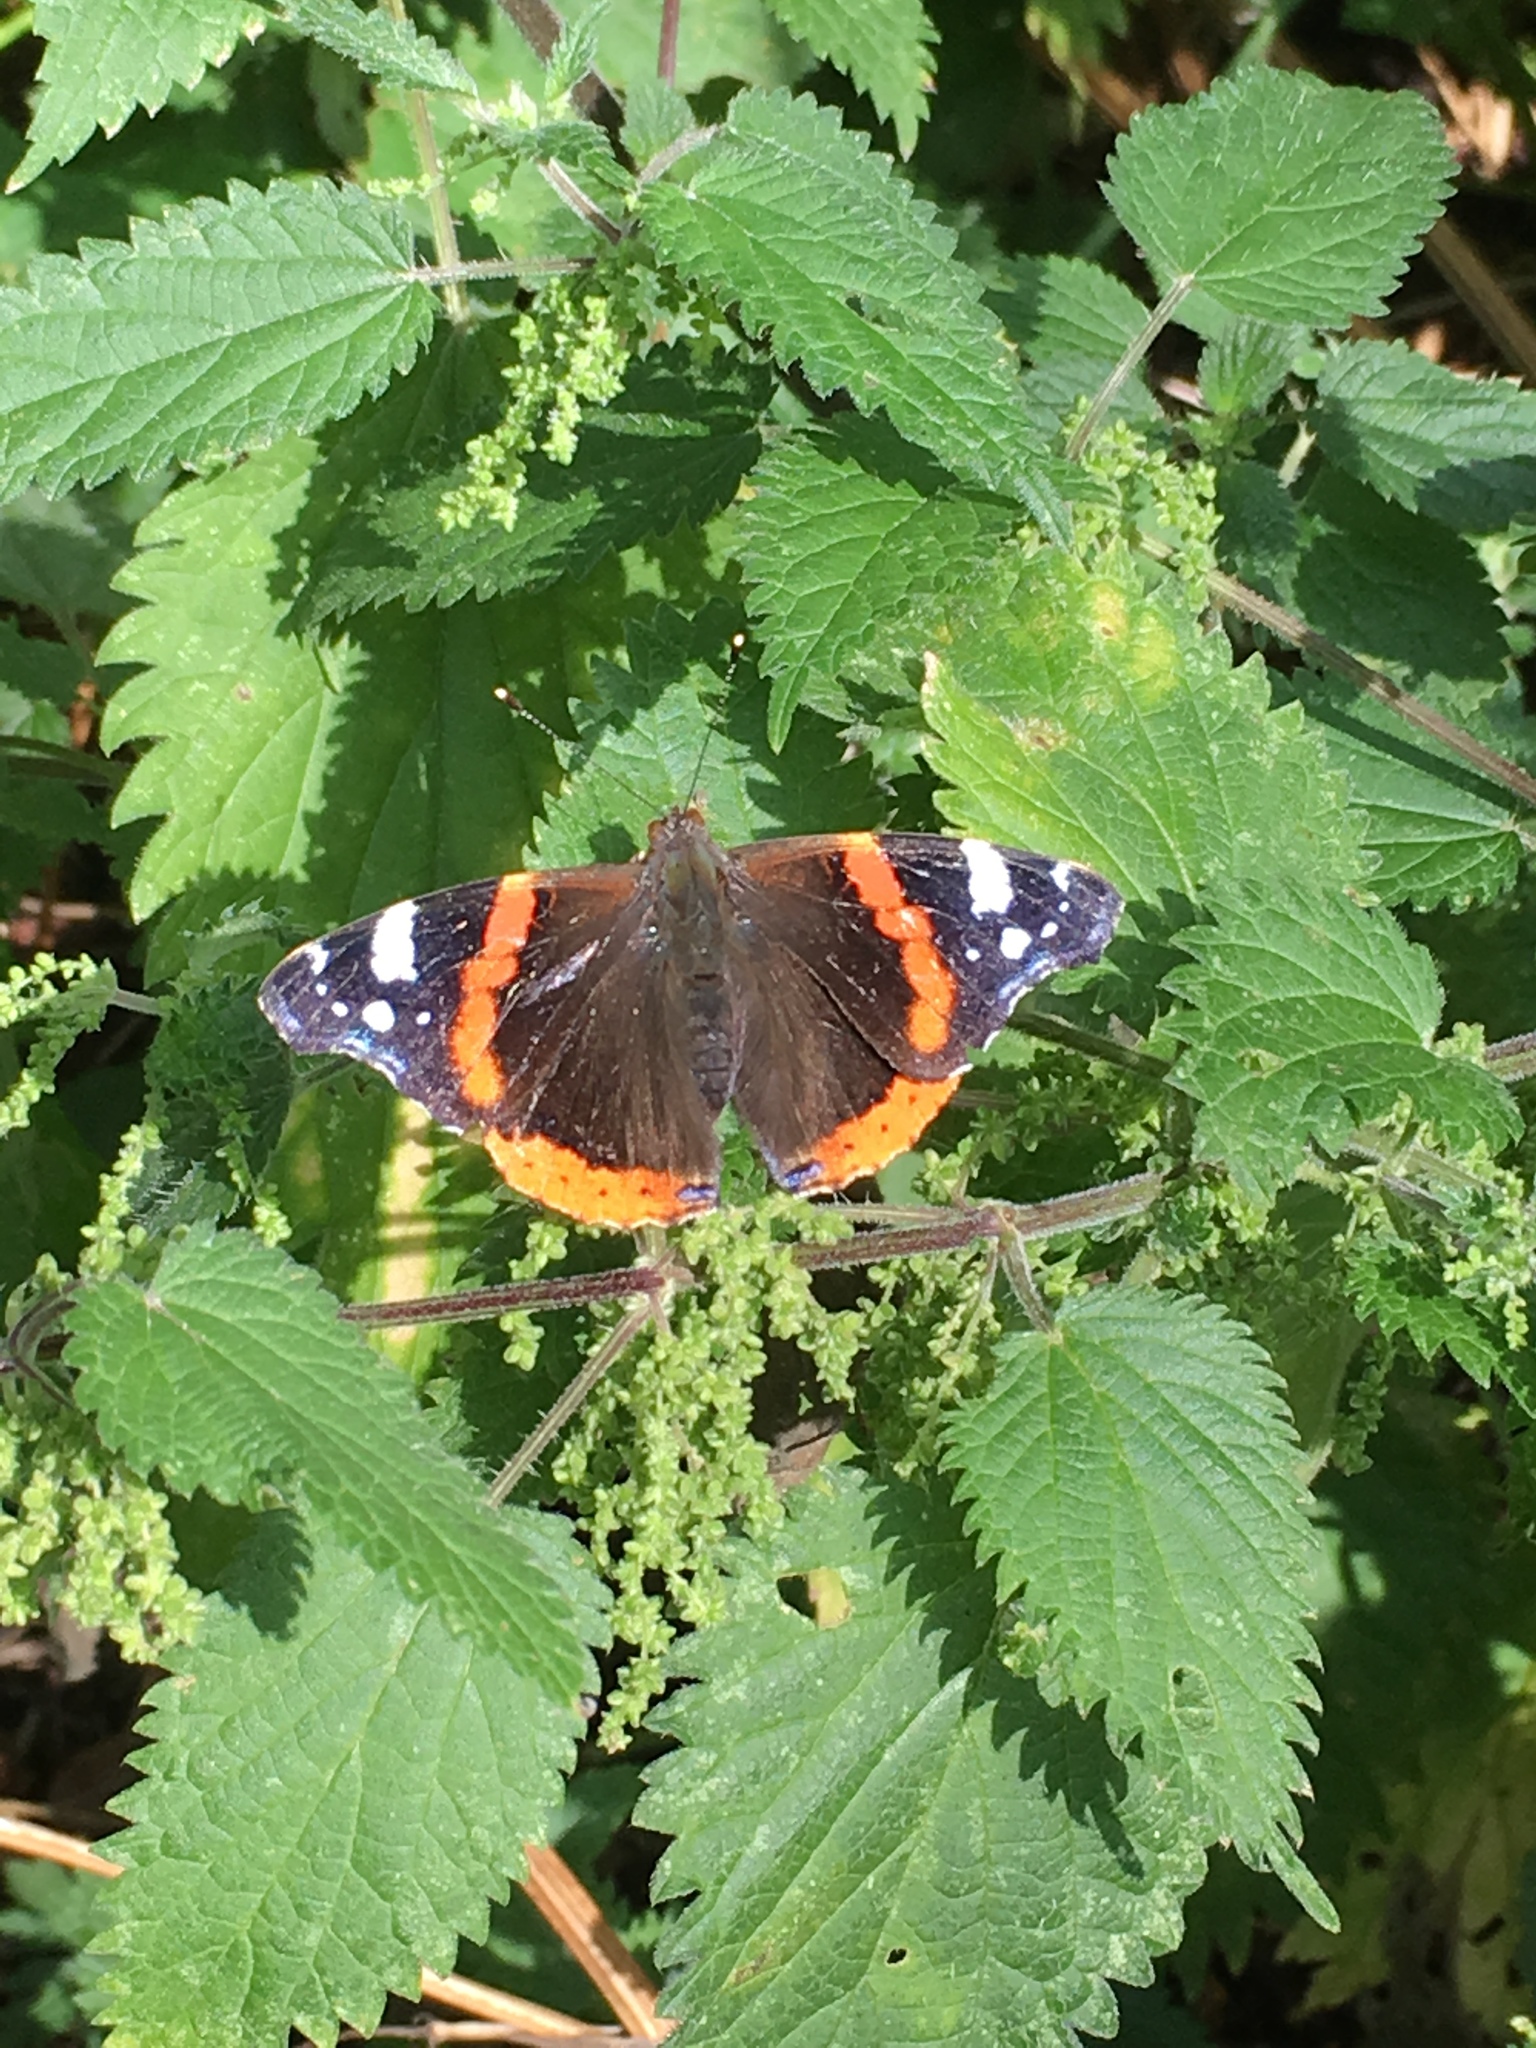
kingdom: Animalia
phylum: Arthropoda
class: Insecta
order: Lepidoptera
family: Nymphalidae
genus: Vanessa
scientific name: Vanessa atalanta
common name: Red admiral
